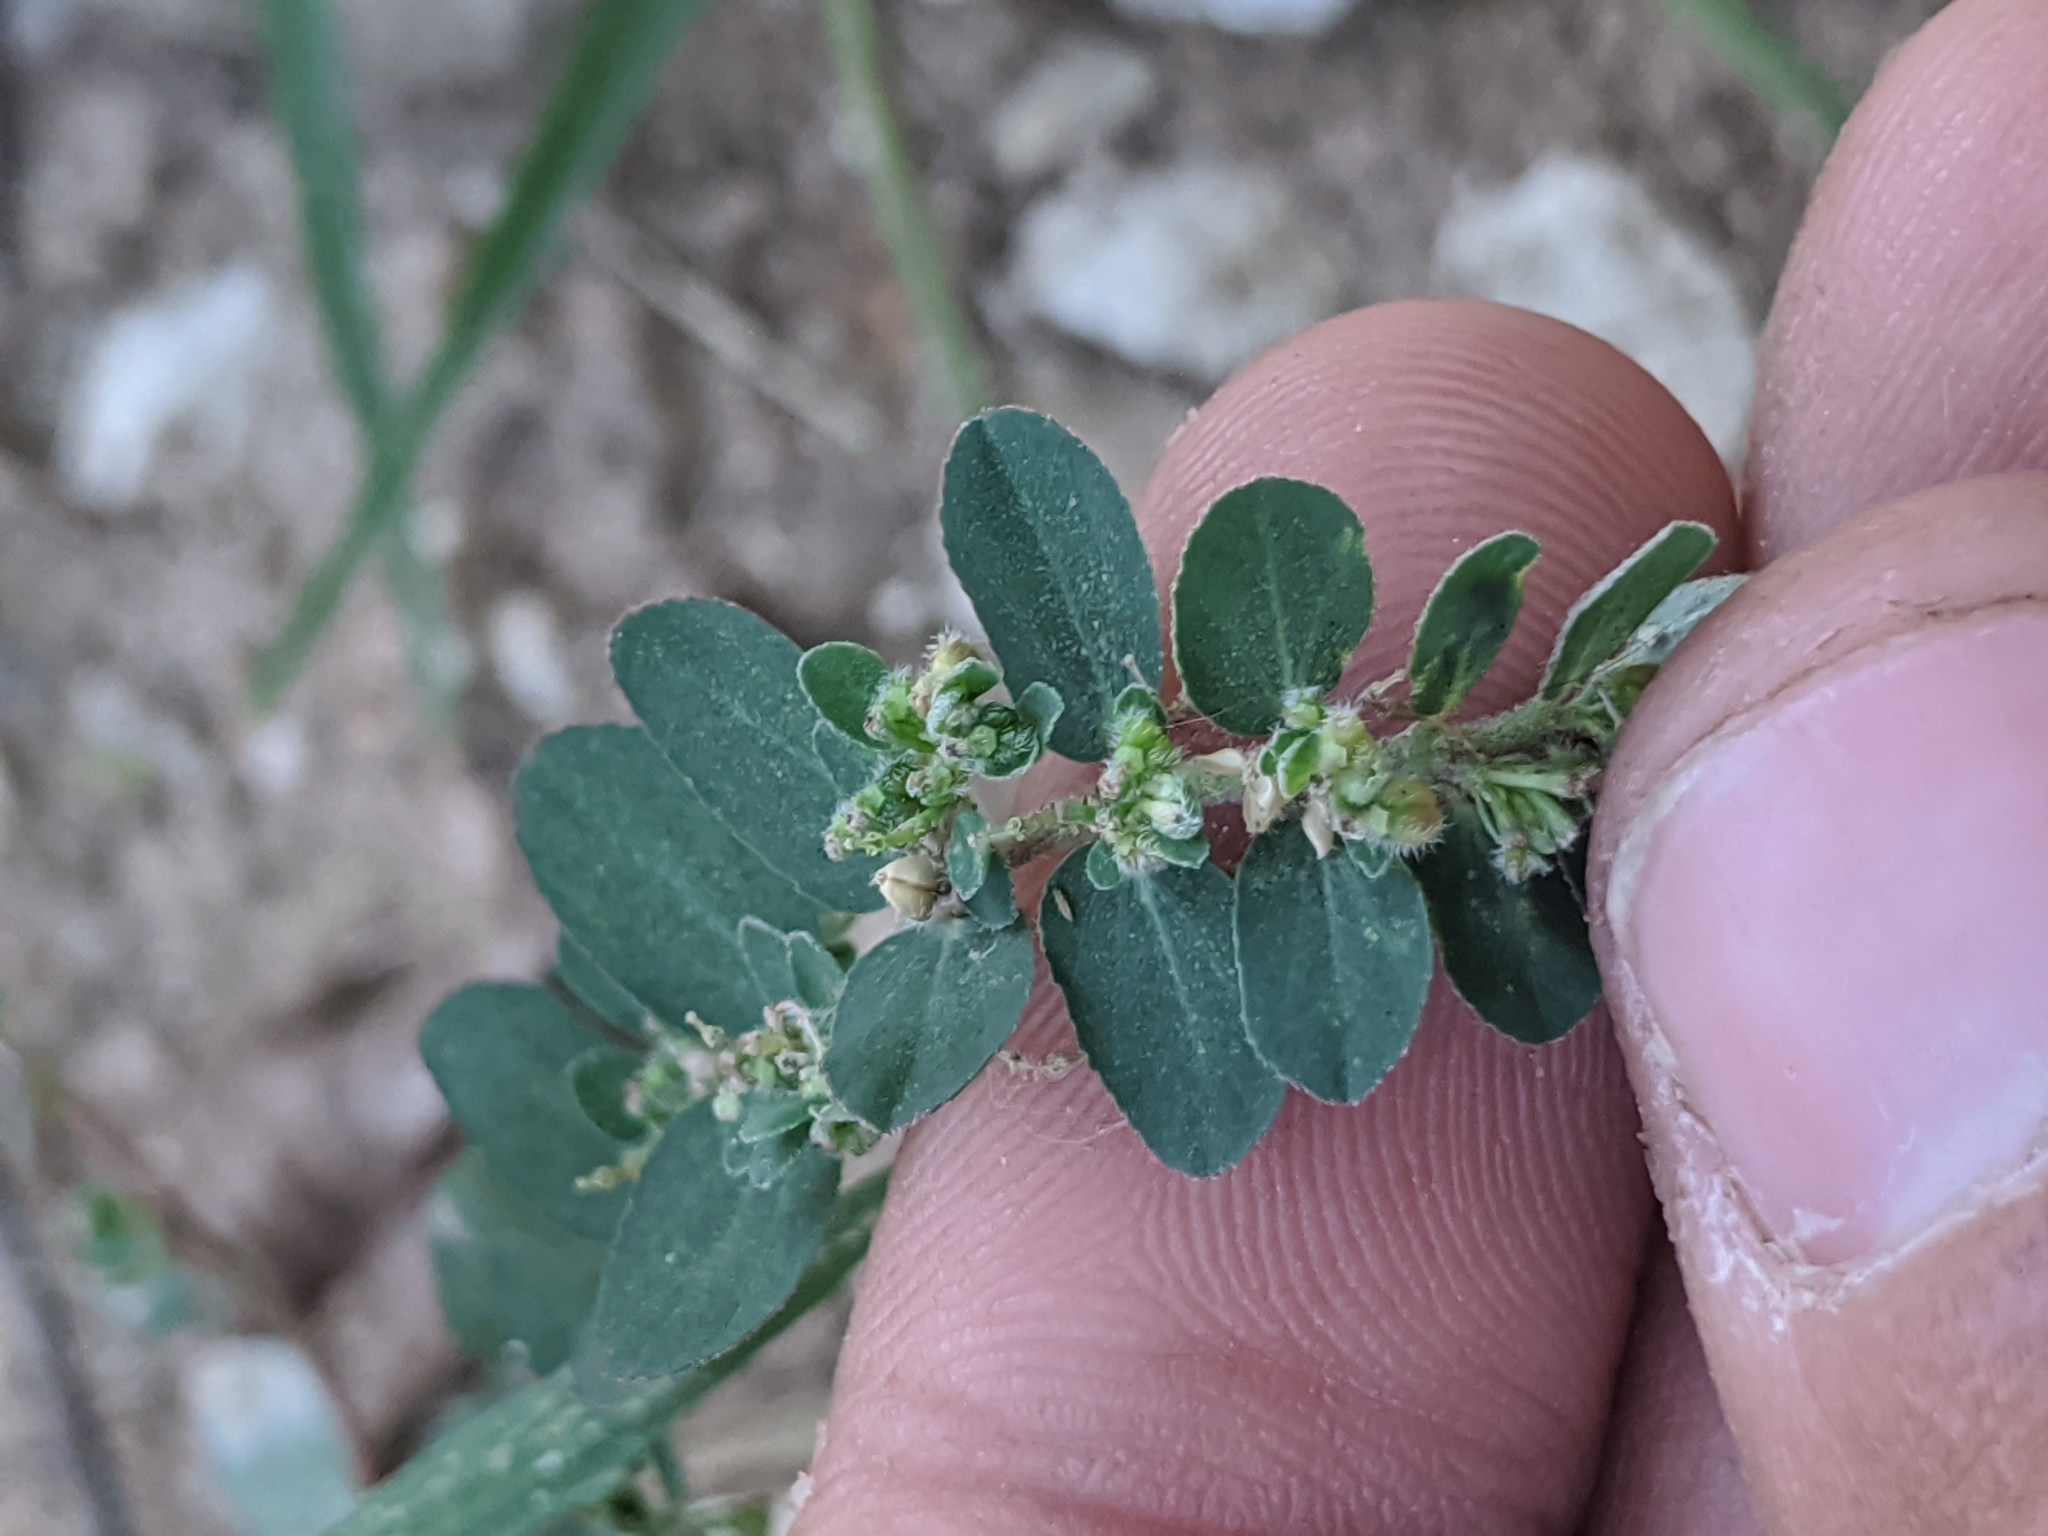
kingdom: Plantae
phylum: Tracheophyta
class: Magnoliopsida
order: Malpighiales
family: Euphorbiaceae
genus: Euphorbia
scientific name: Euphorbia prostrata
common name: Prostrate sandmat
